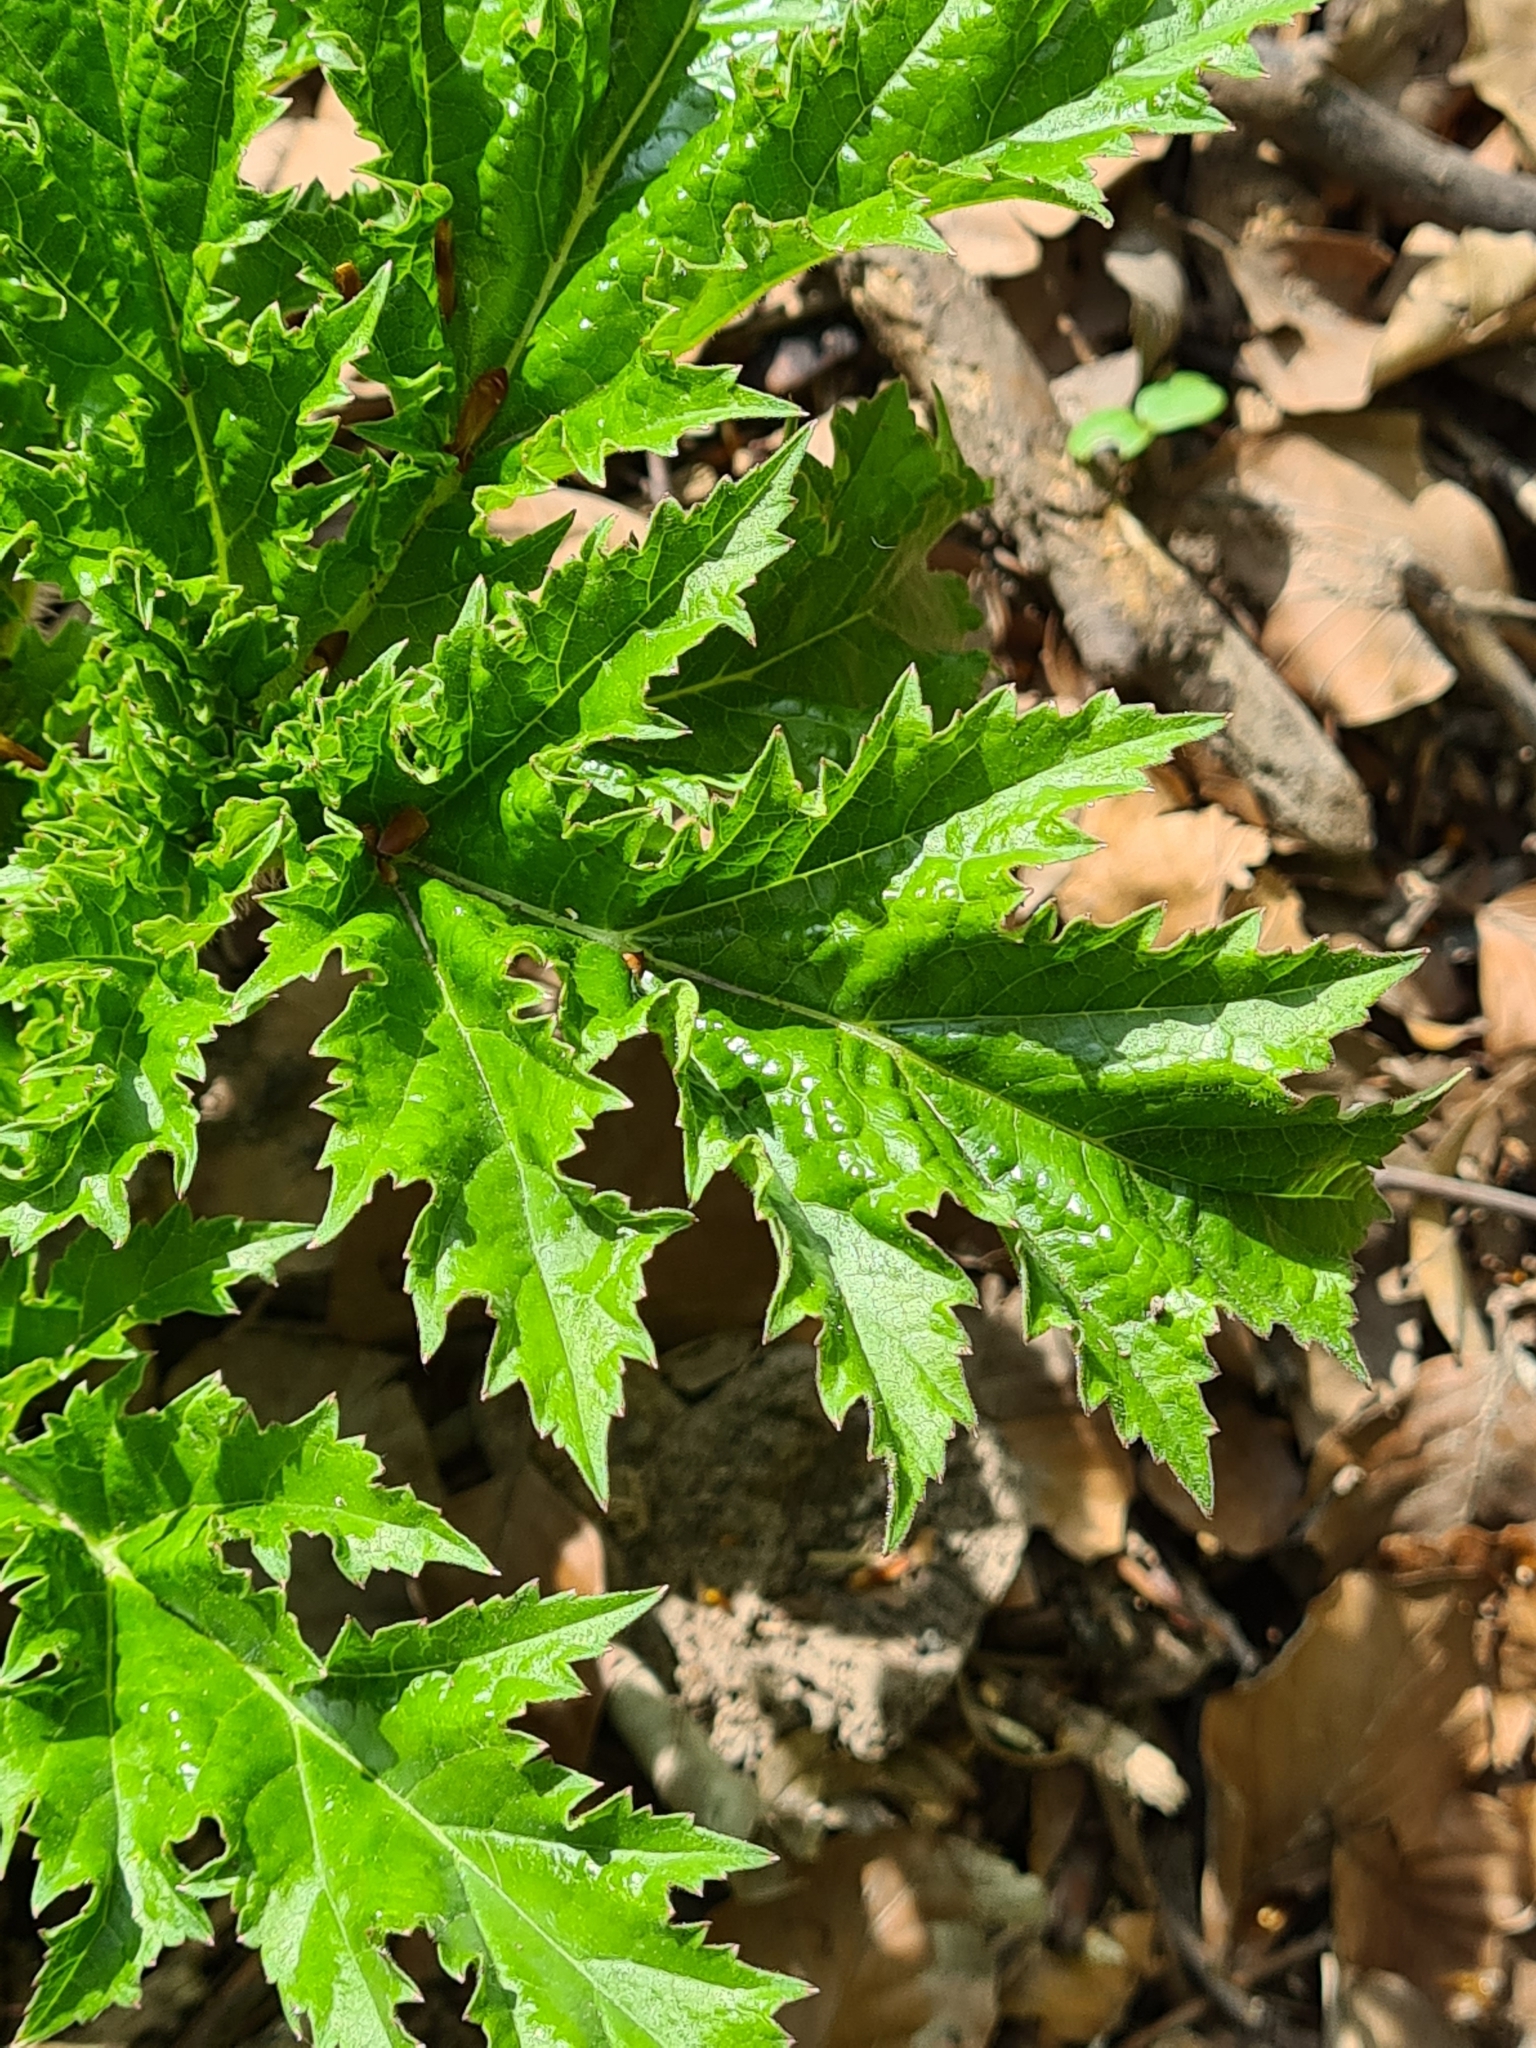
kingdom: Plantae
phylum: Tracheophyta
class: Magnoliopsida
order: Apiales
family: Apiaceae
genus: Heracleum
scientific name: Heracleum mantegazzianum
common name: Giant hogweed
